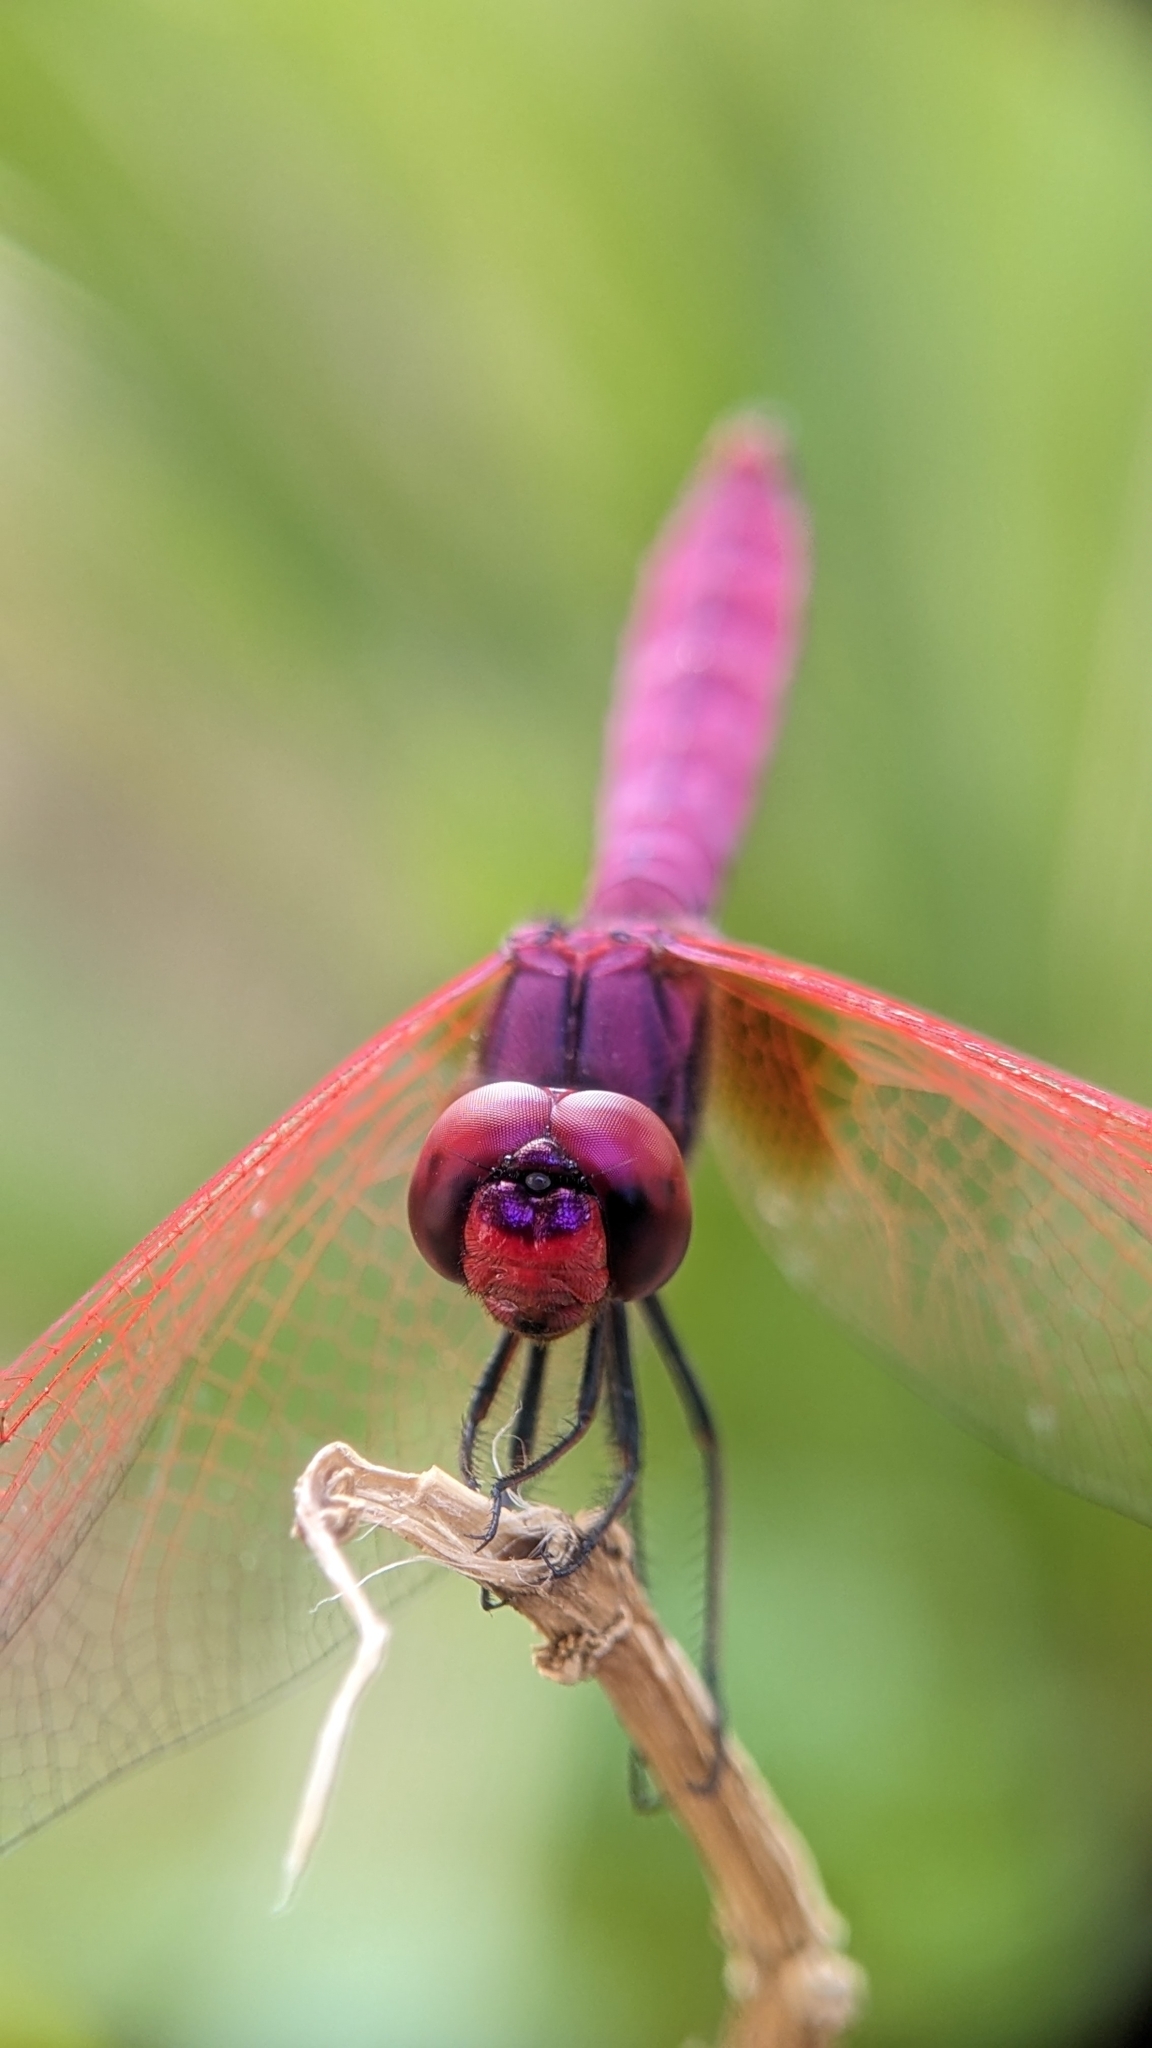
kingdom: Animalia
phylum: Arthropoda
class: Insecta
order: Odonata
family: Libellulidae
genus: Trithemis
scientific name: Trithemis aurora
